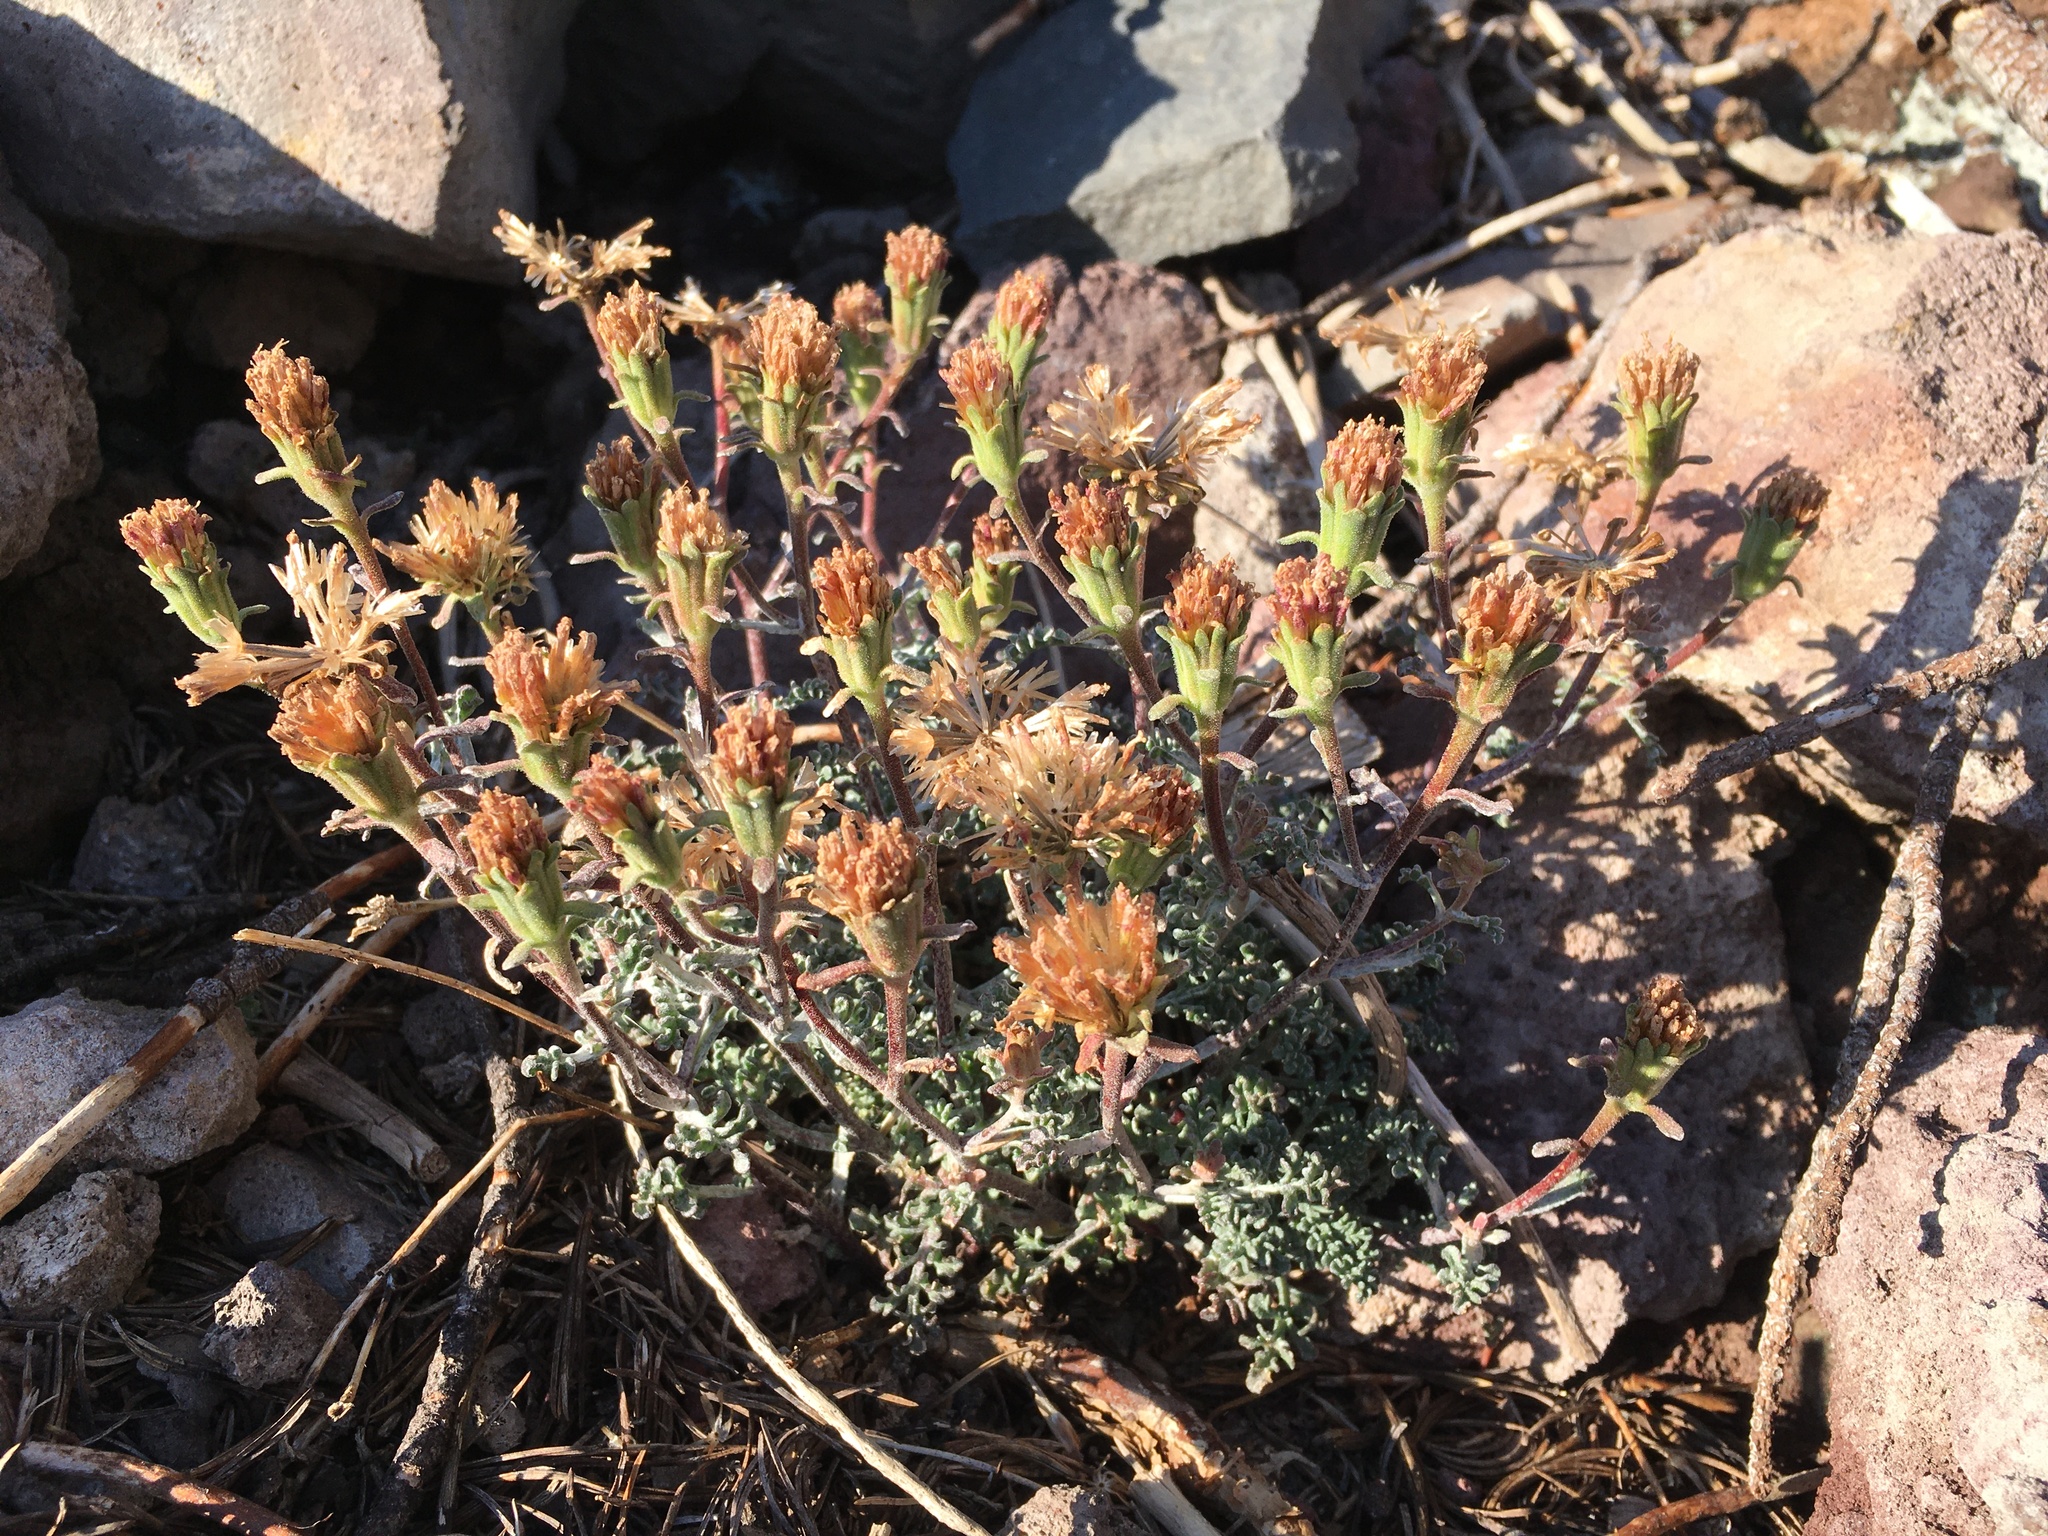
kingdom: Plantae
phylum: Tracheophyta
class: Magnoliopsida
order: Asterales
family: Asteraceae
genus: Chaenactis
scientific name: Chaenactis douglasii
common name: Hoary pincushion
